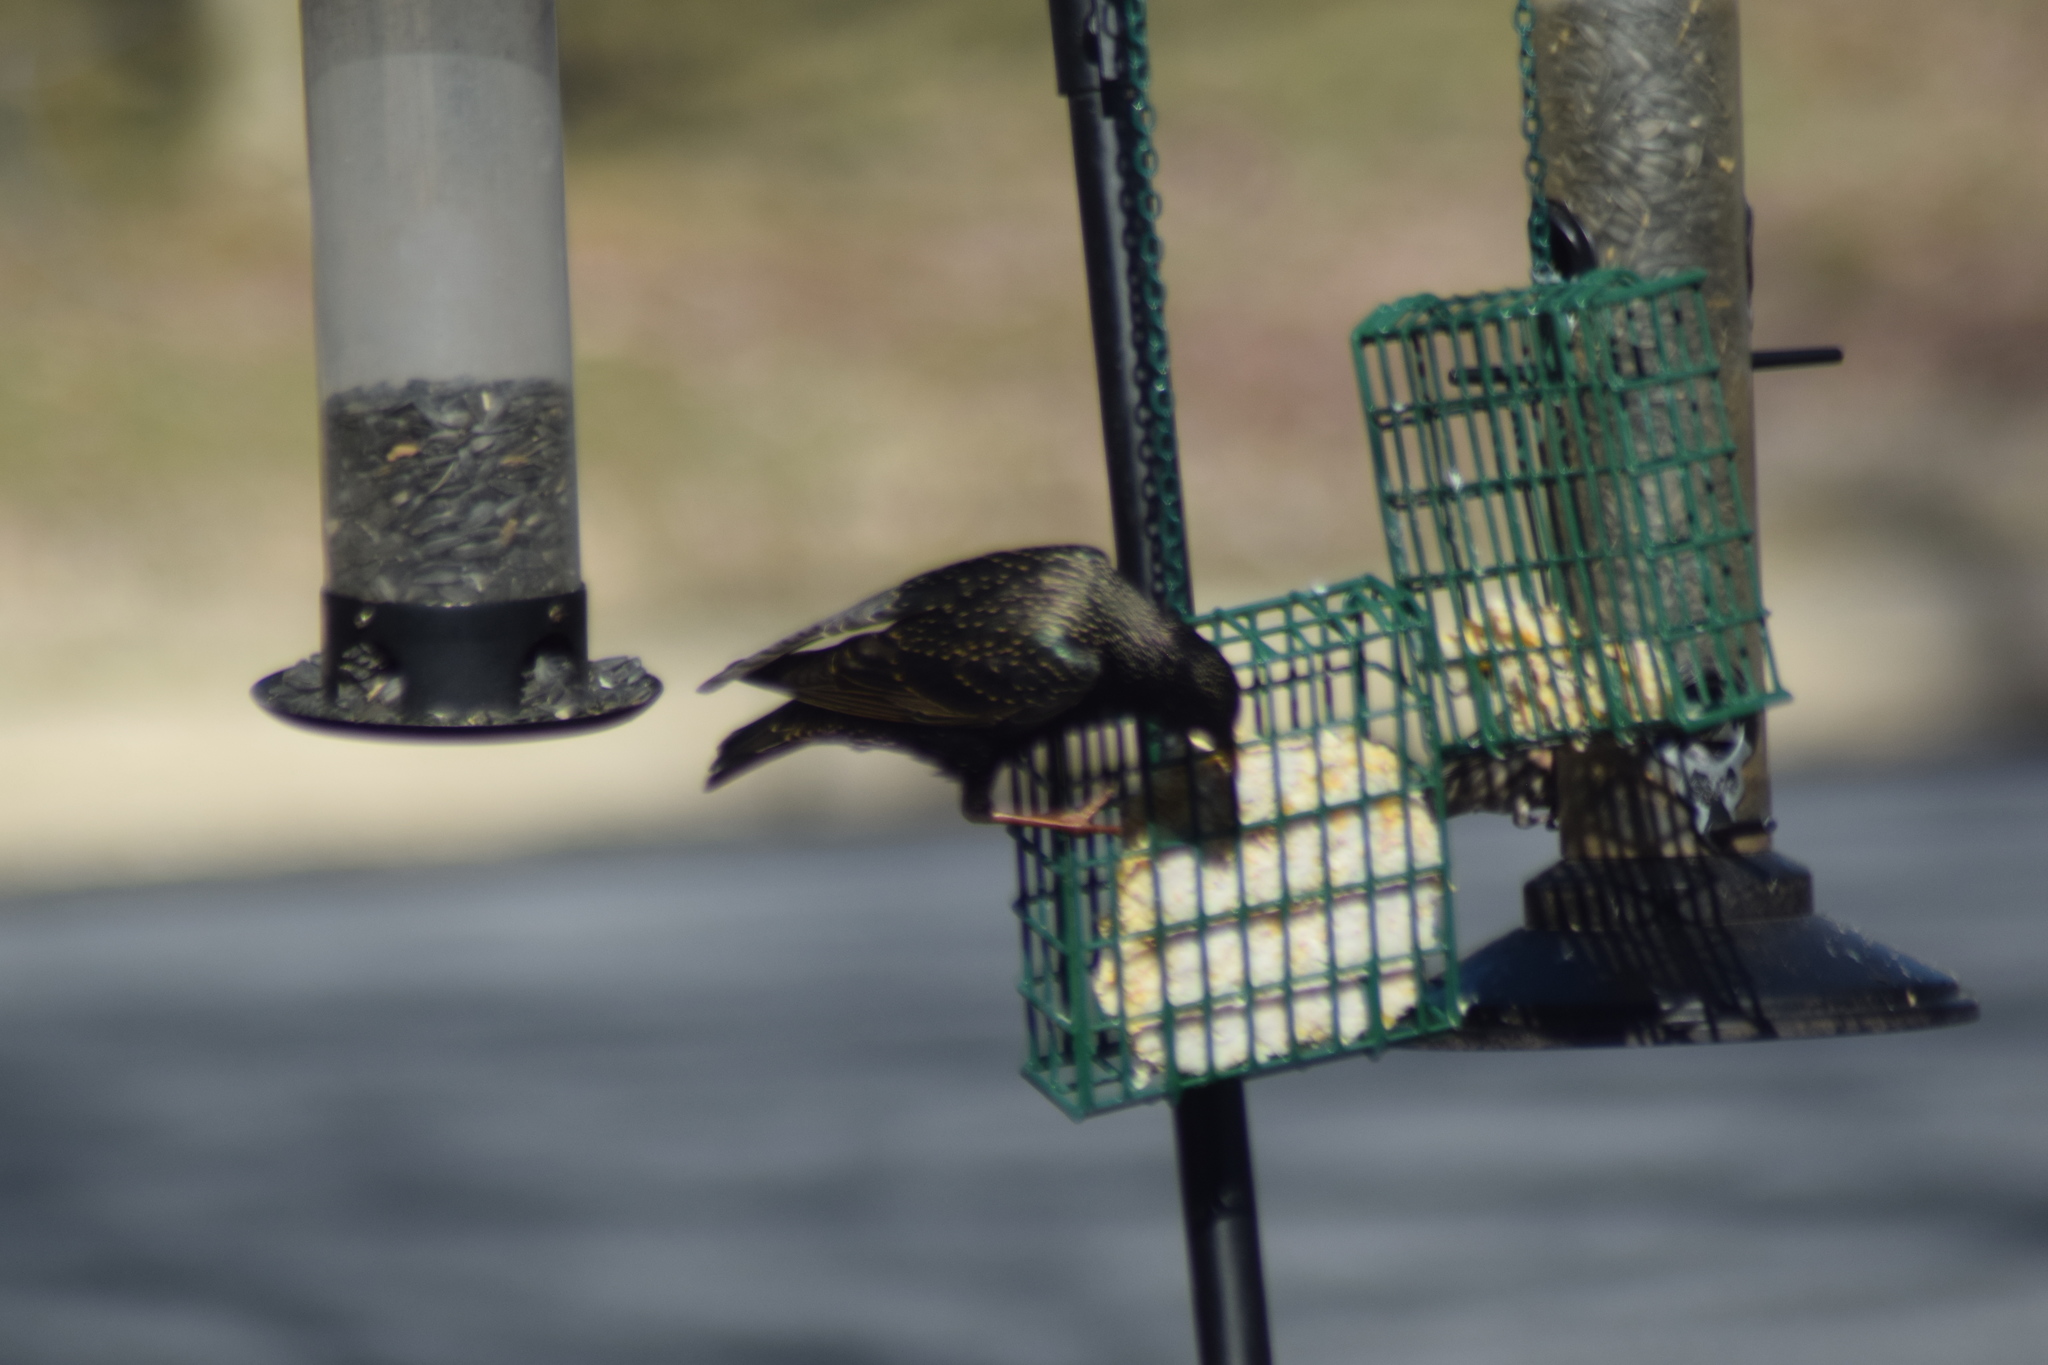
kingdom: Animalia
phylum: Chordata
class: Aves
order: Passeriformes
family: Sturnidae
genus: Sturnus
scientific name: Sturnus vulgaris
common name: Common starling
